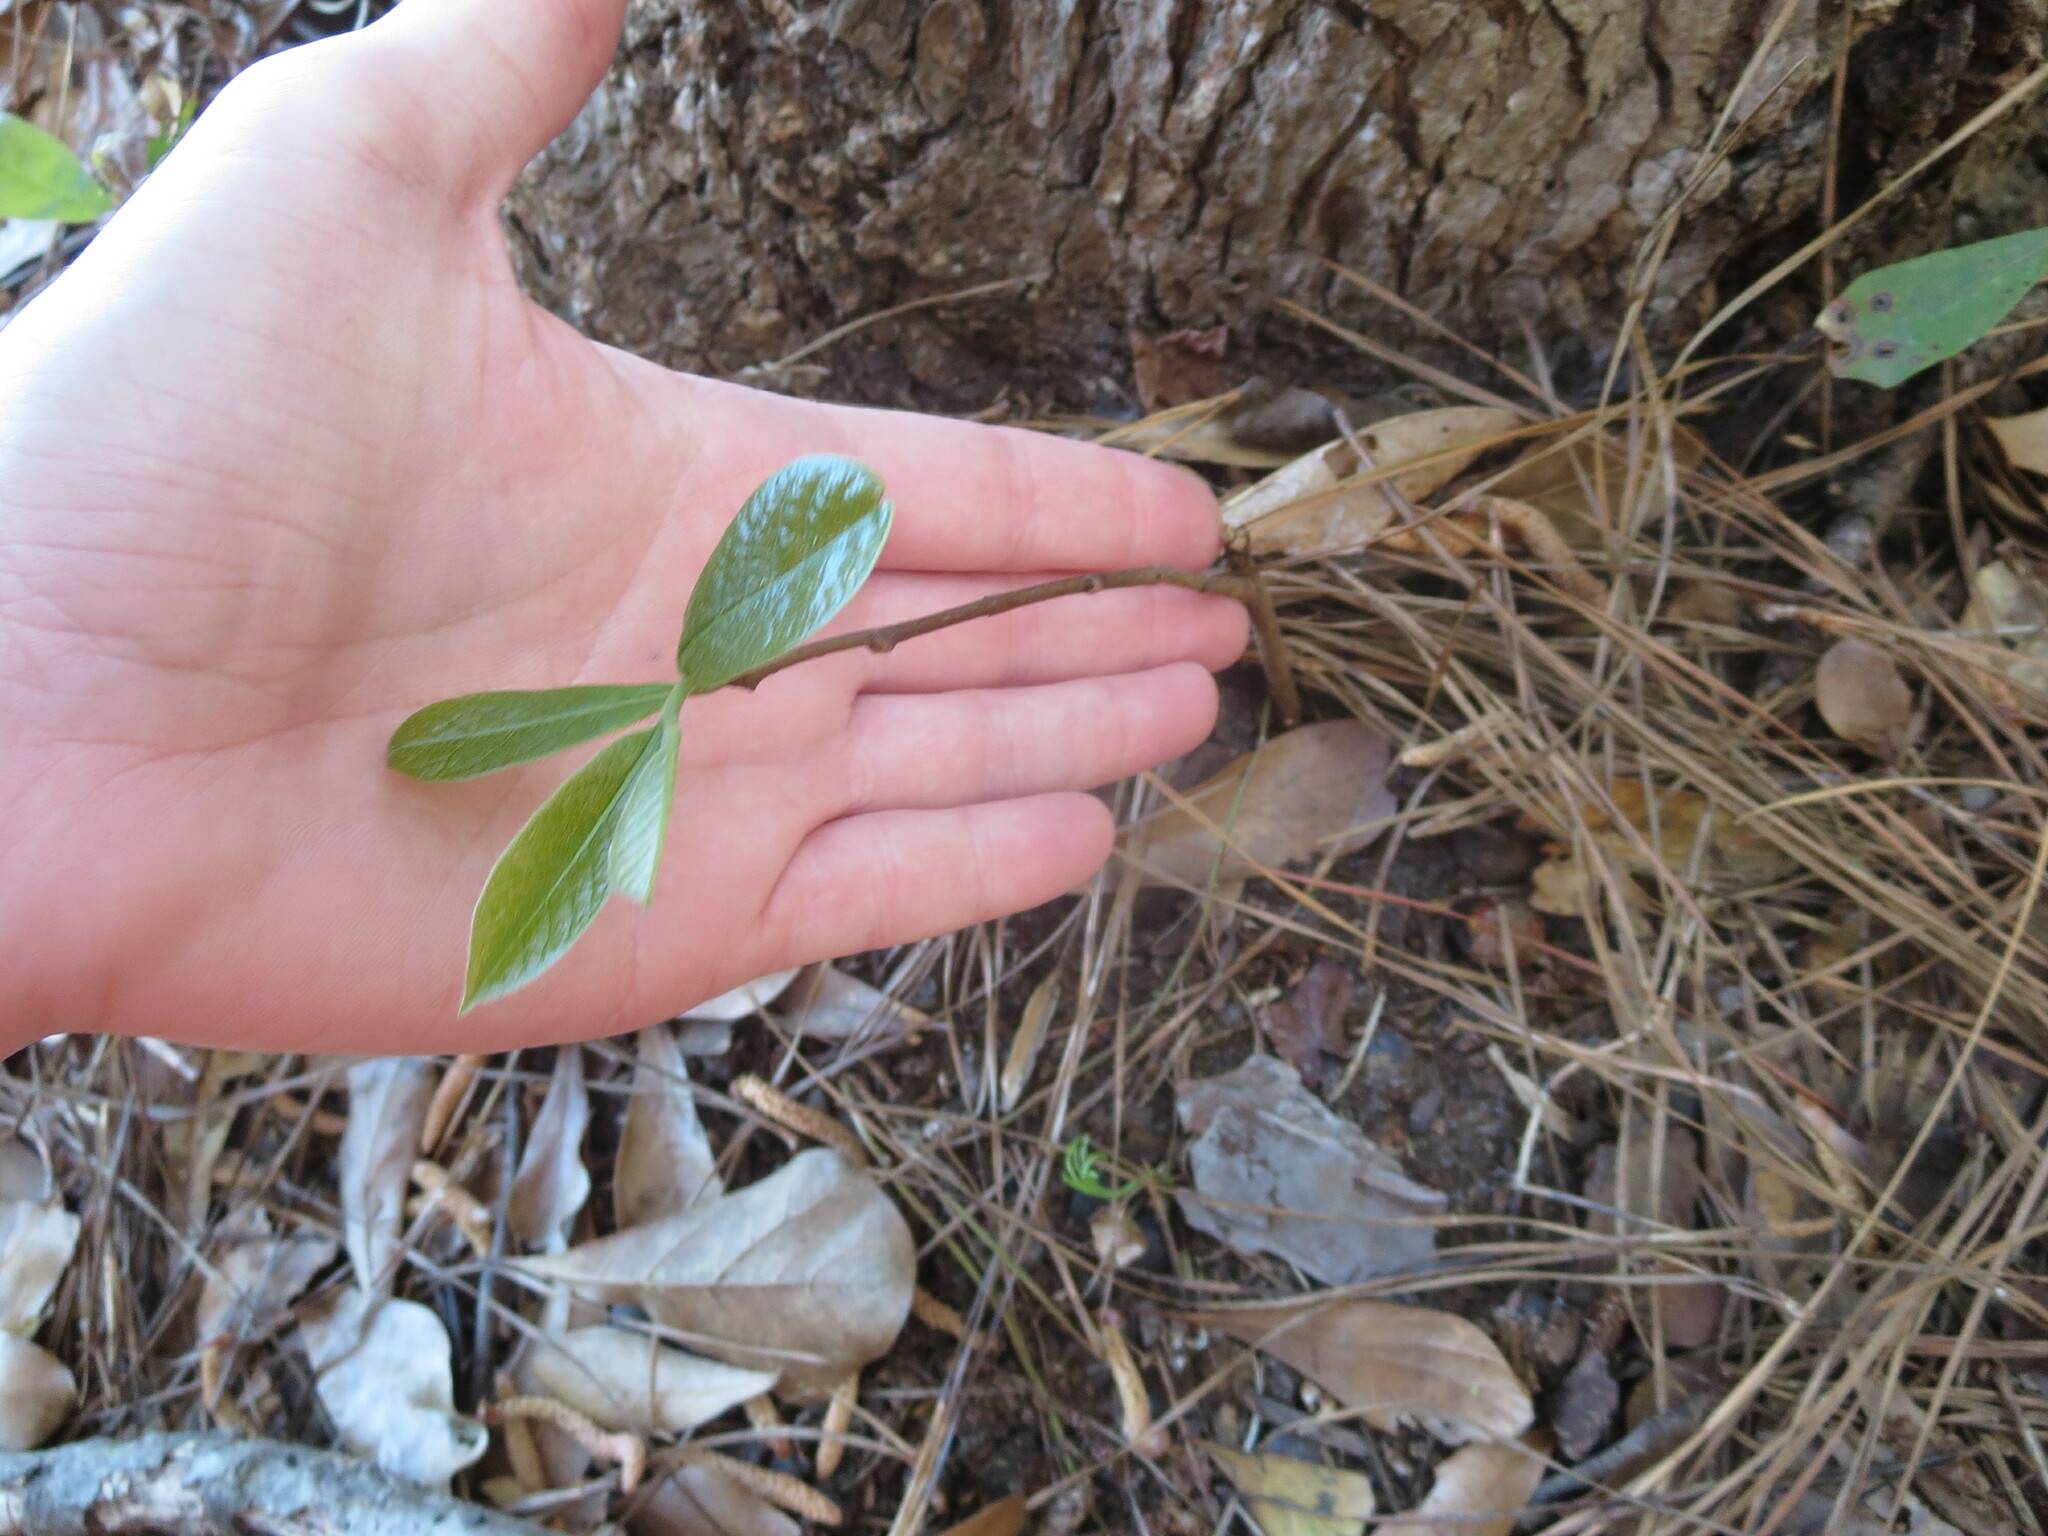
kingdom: Plantae
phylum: Tracheophyta
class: Magnoliopsida
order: Magnoliales
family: Annonaceae
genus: Asimina
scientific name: Asimina parviflora
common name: Dwarf pawpaw
